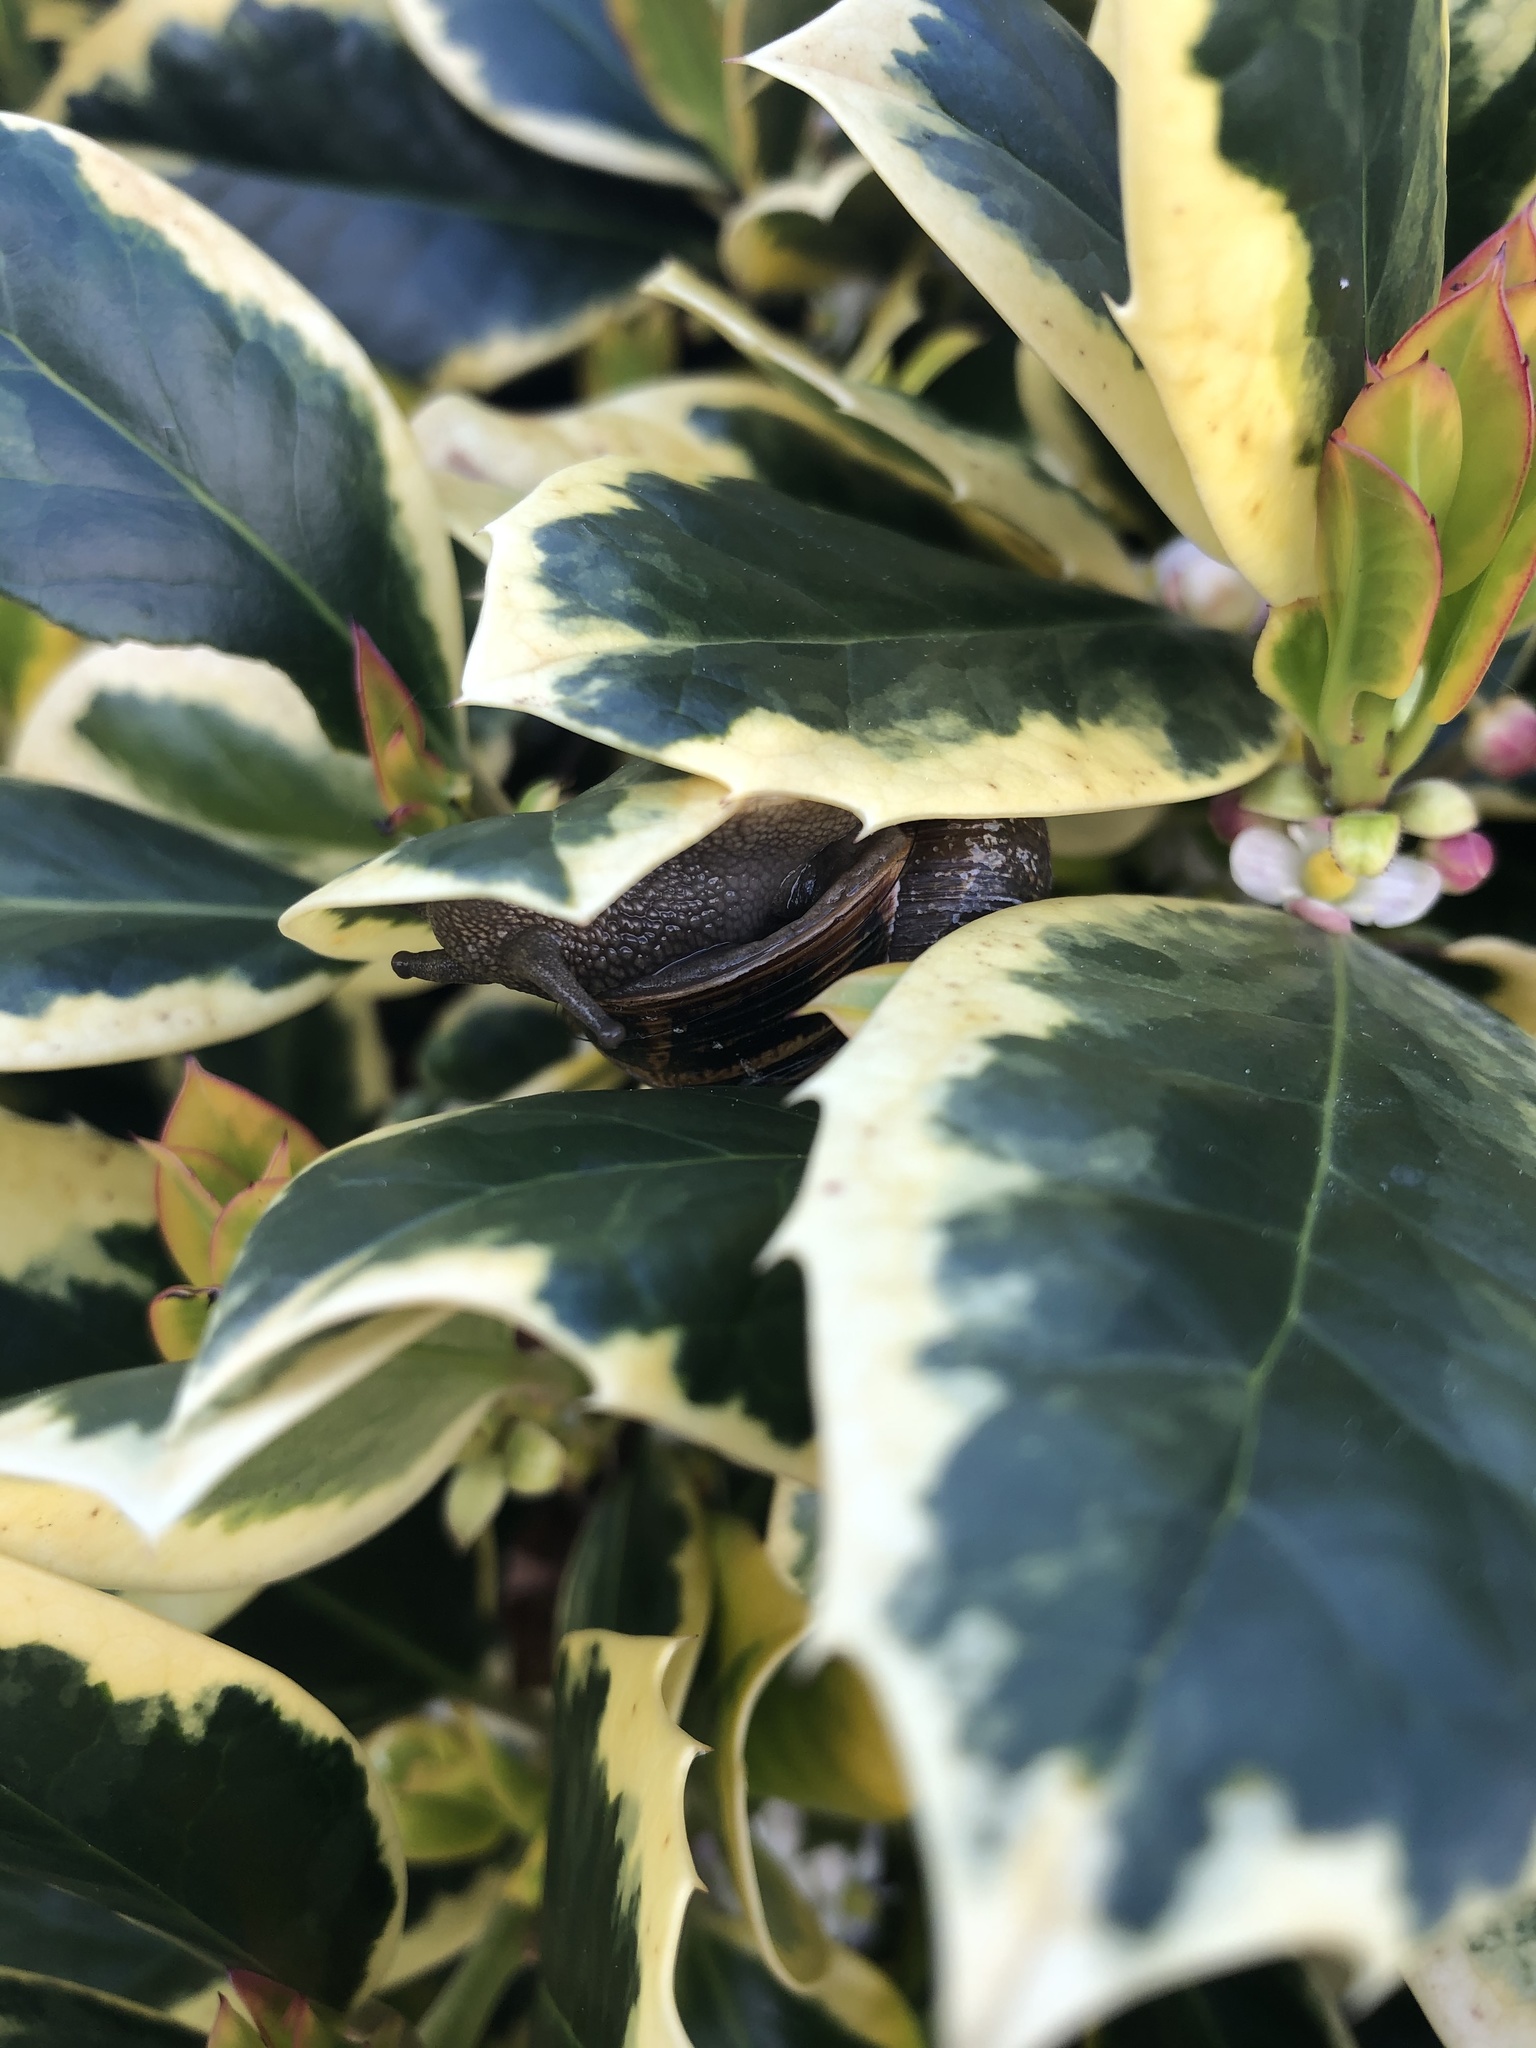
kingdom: Animalia
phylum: Mollusca
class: Gastropoda
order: Stylommatophora
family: Helicidae
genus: Cornu
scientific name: Cornu aspersum
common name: Brown garden snail
